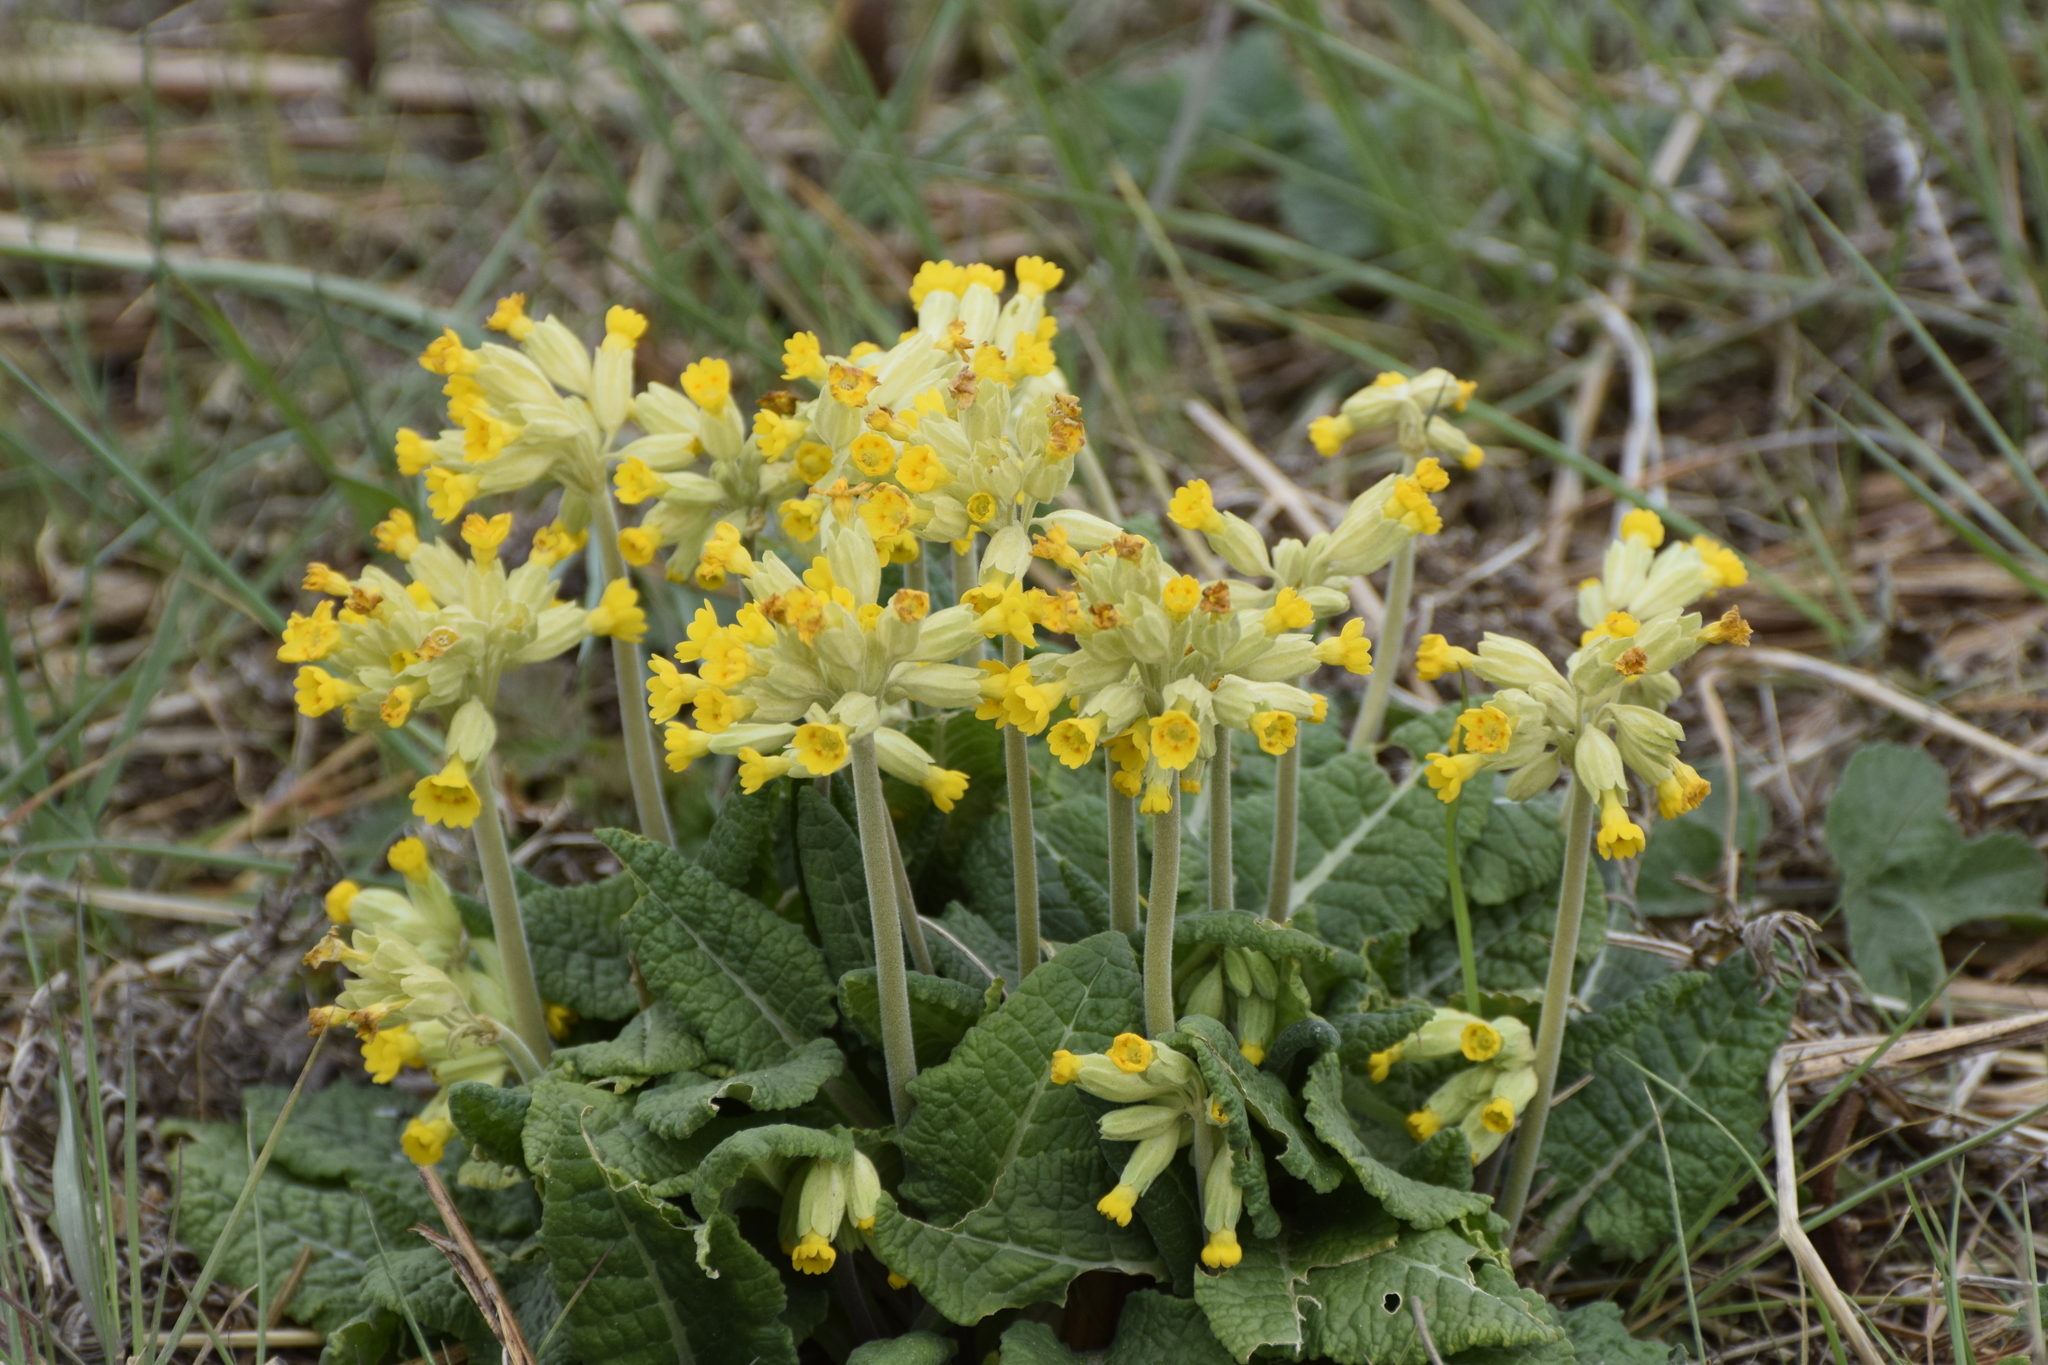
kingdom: Plantae
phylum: Tracheophyta
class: Magnoliopsida
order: Ericales
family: Primulaceae
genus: Primula
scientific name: Primula veris
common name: Cowslip
